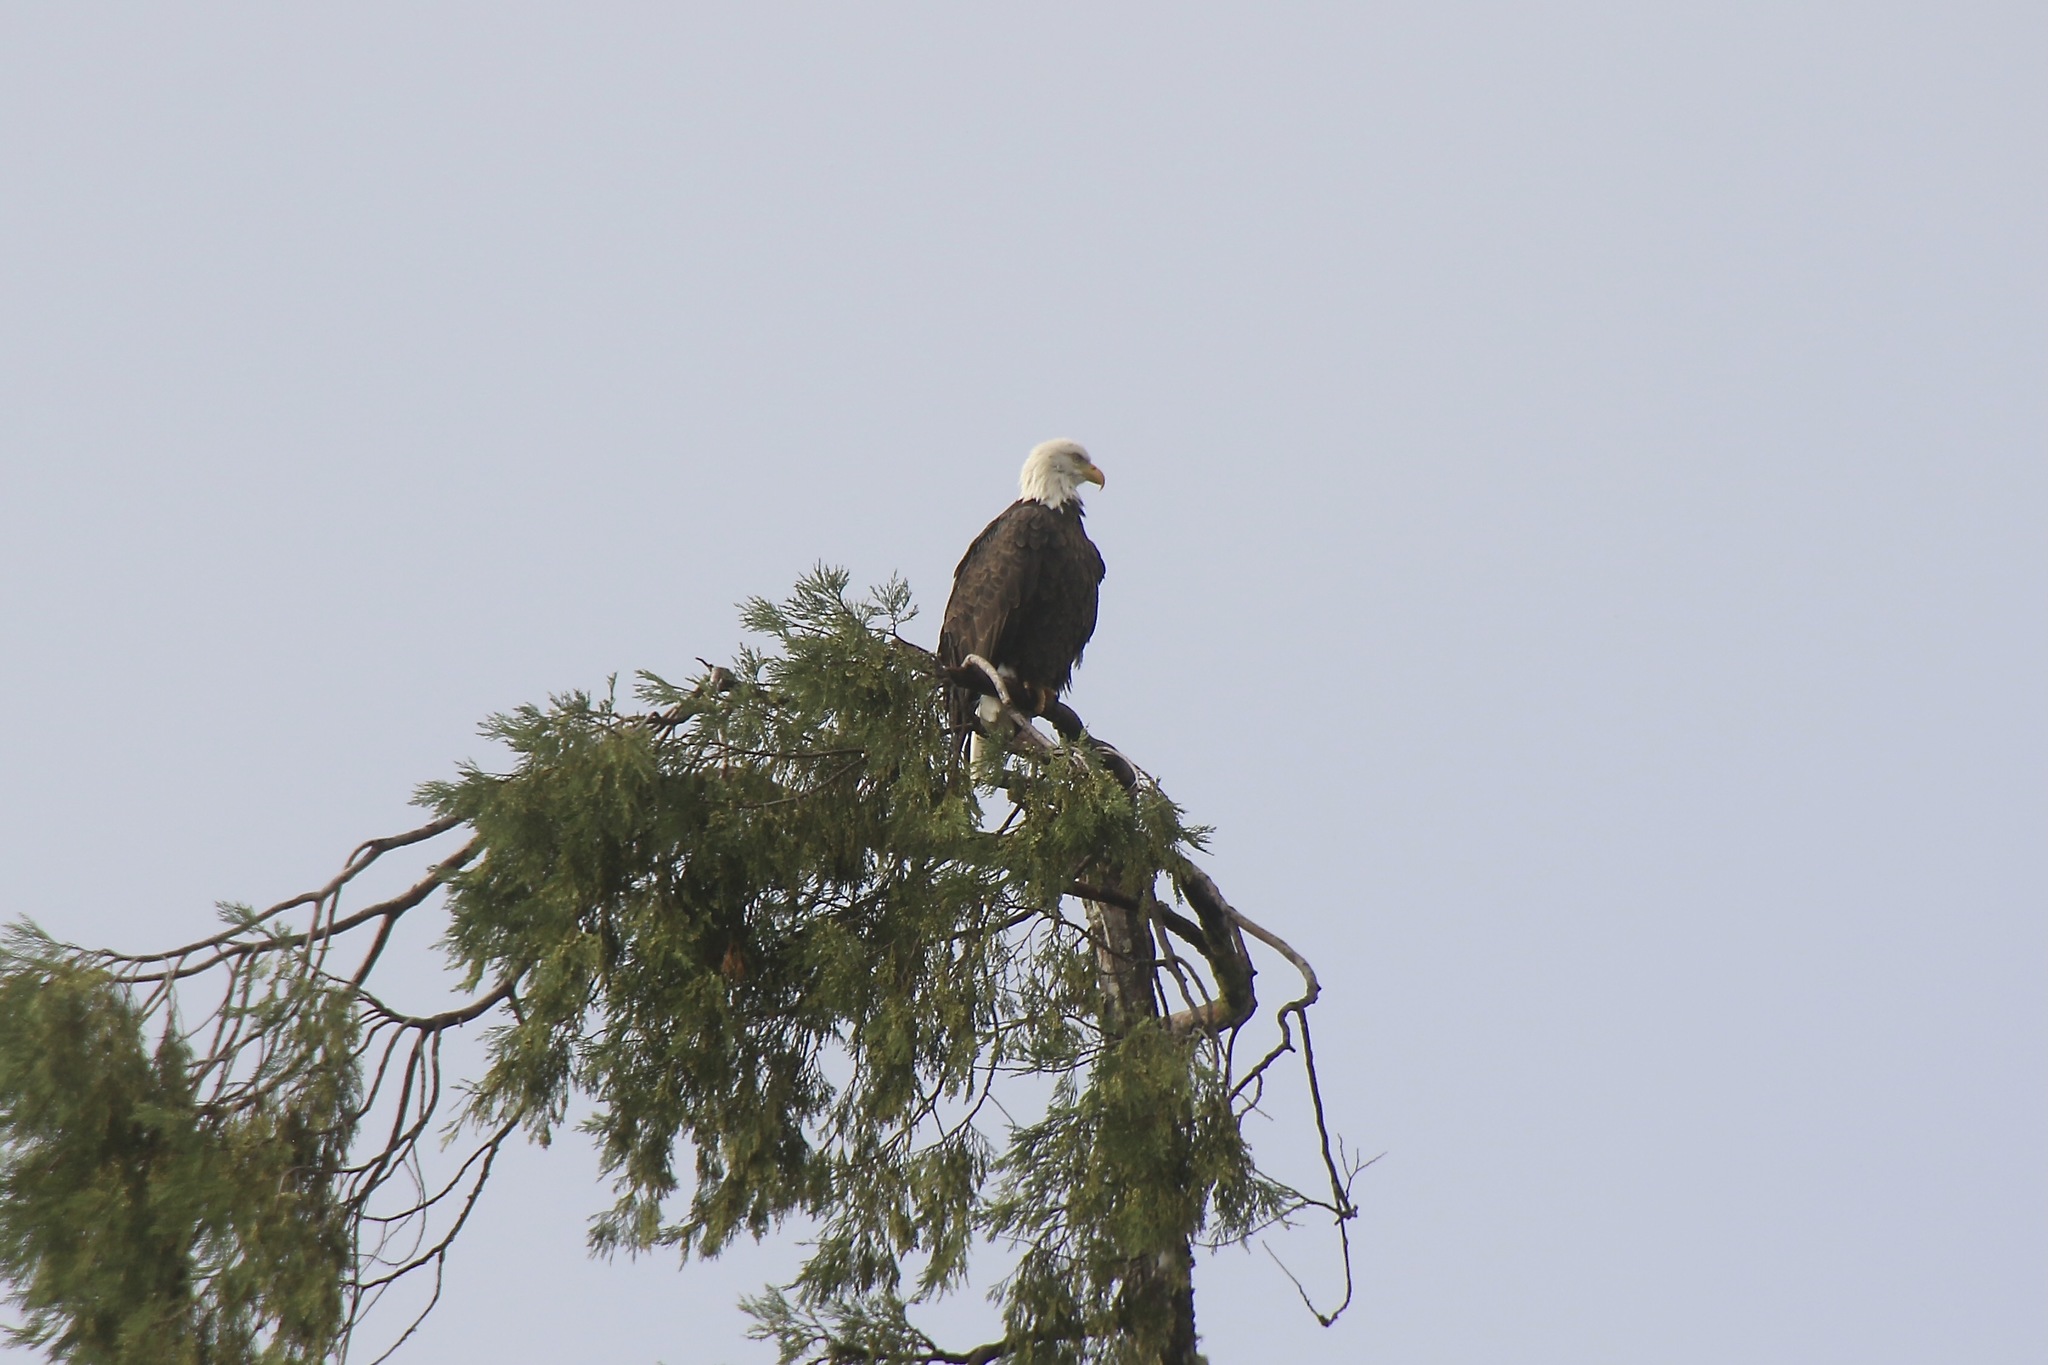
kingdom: Animalia
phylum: Chordata
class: Aves
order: Accipitriformes
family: Accipitridae
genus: Haliaeetus
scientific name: Haliaeetus leucocephalus
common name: Bald eagle
